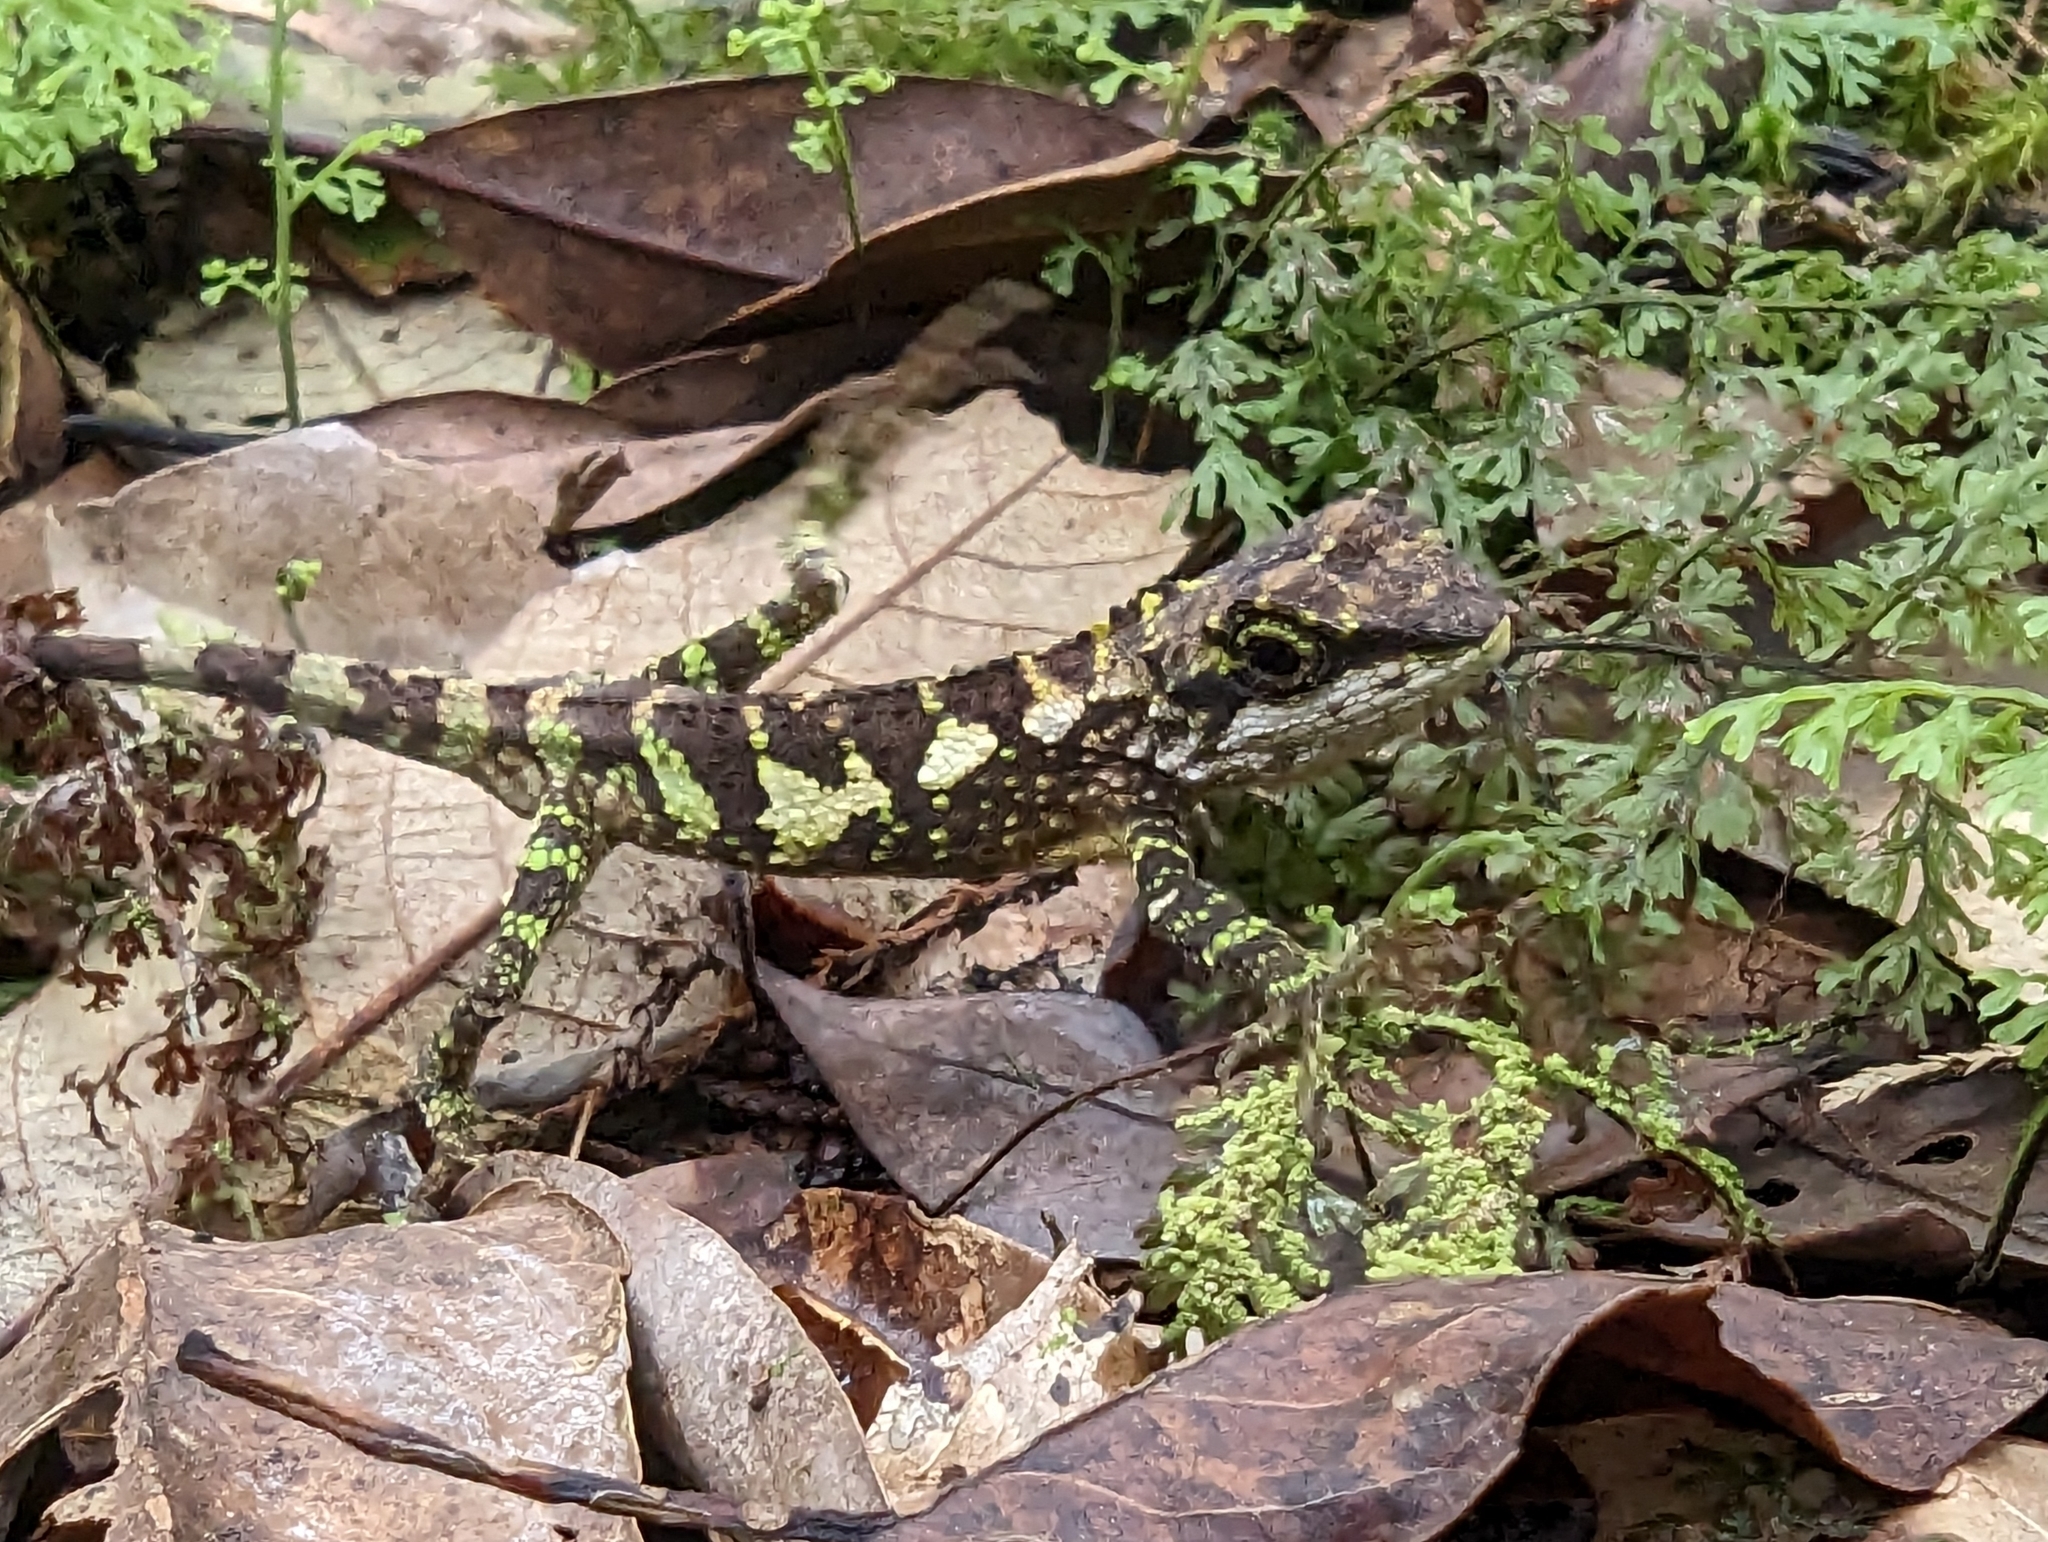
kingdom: Animalia
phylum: Chordata
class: Squamata
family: Agamidae
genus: Diploderma
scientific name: Diploderma brevipes
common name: Short-legged japalure
